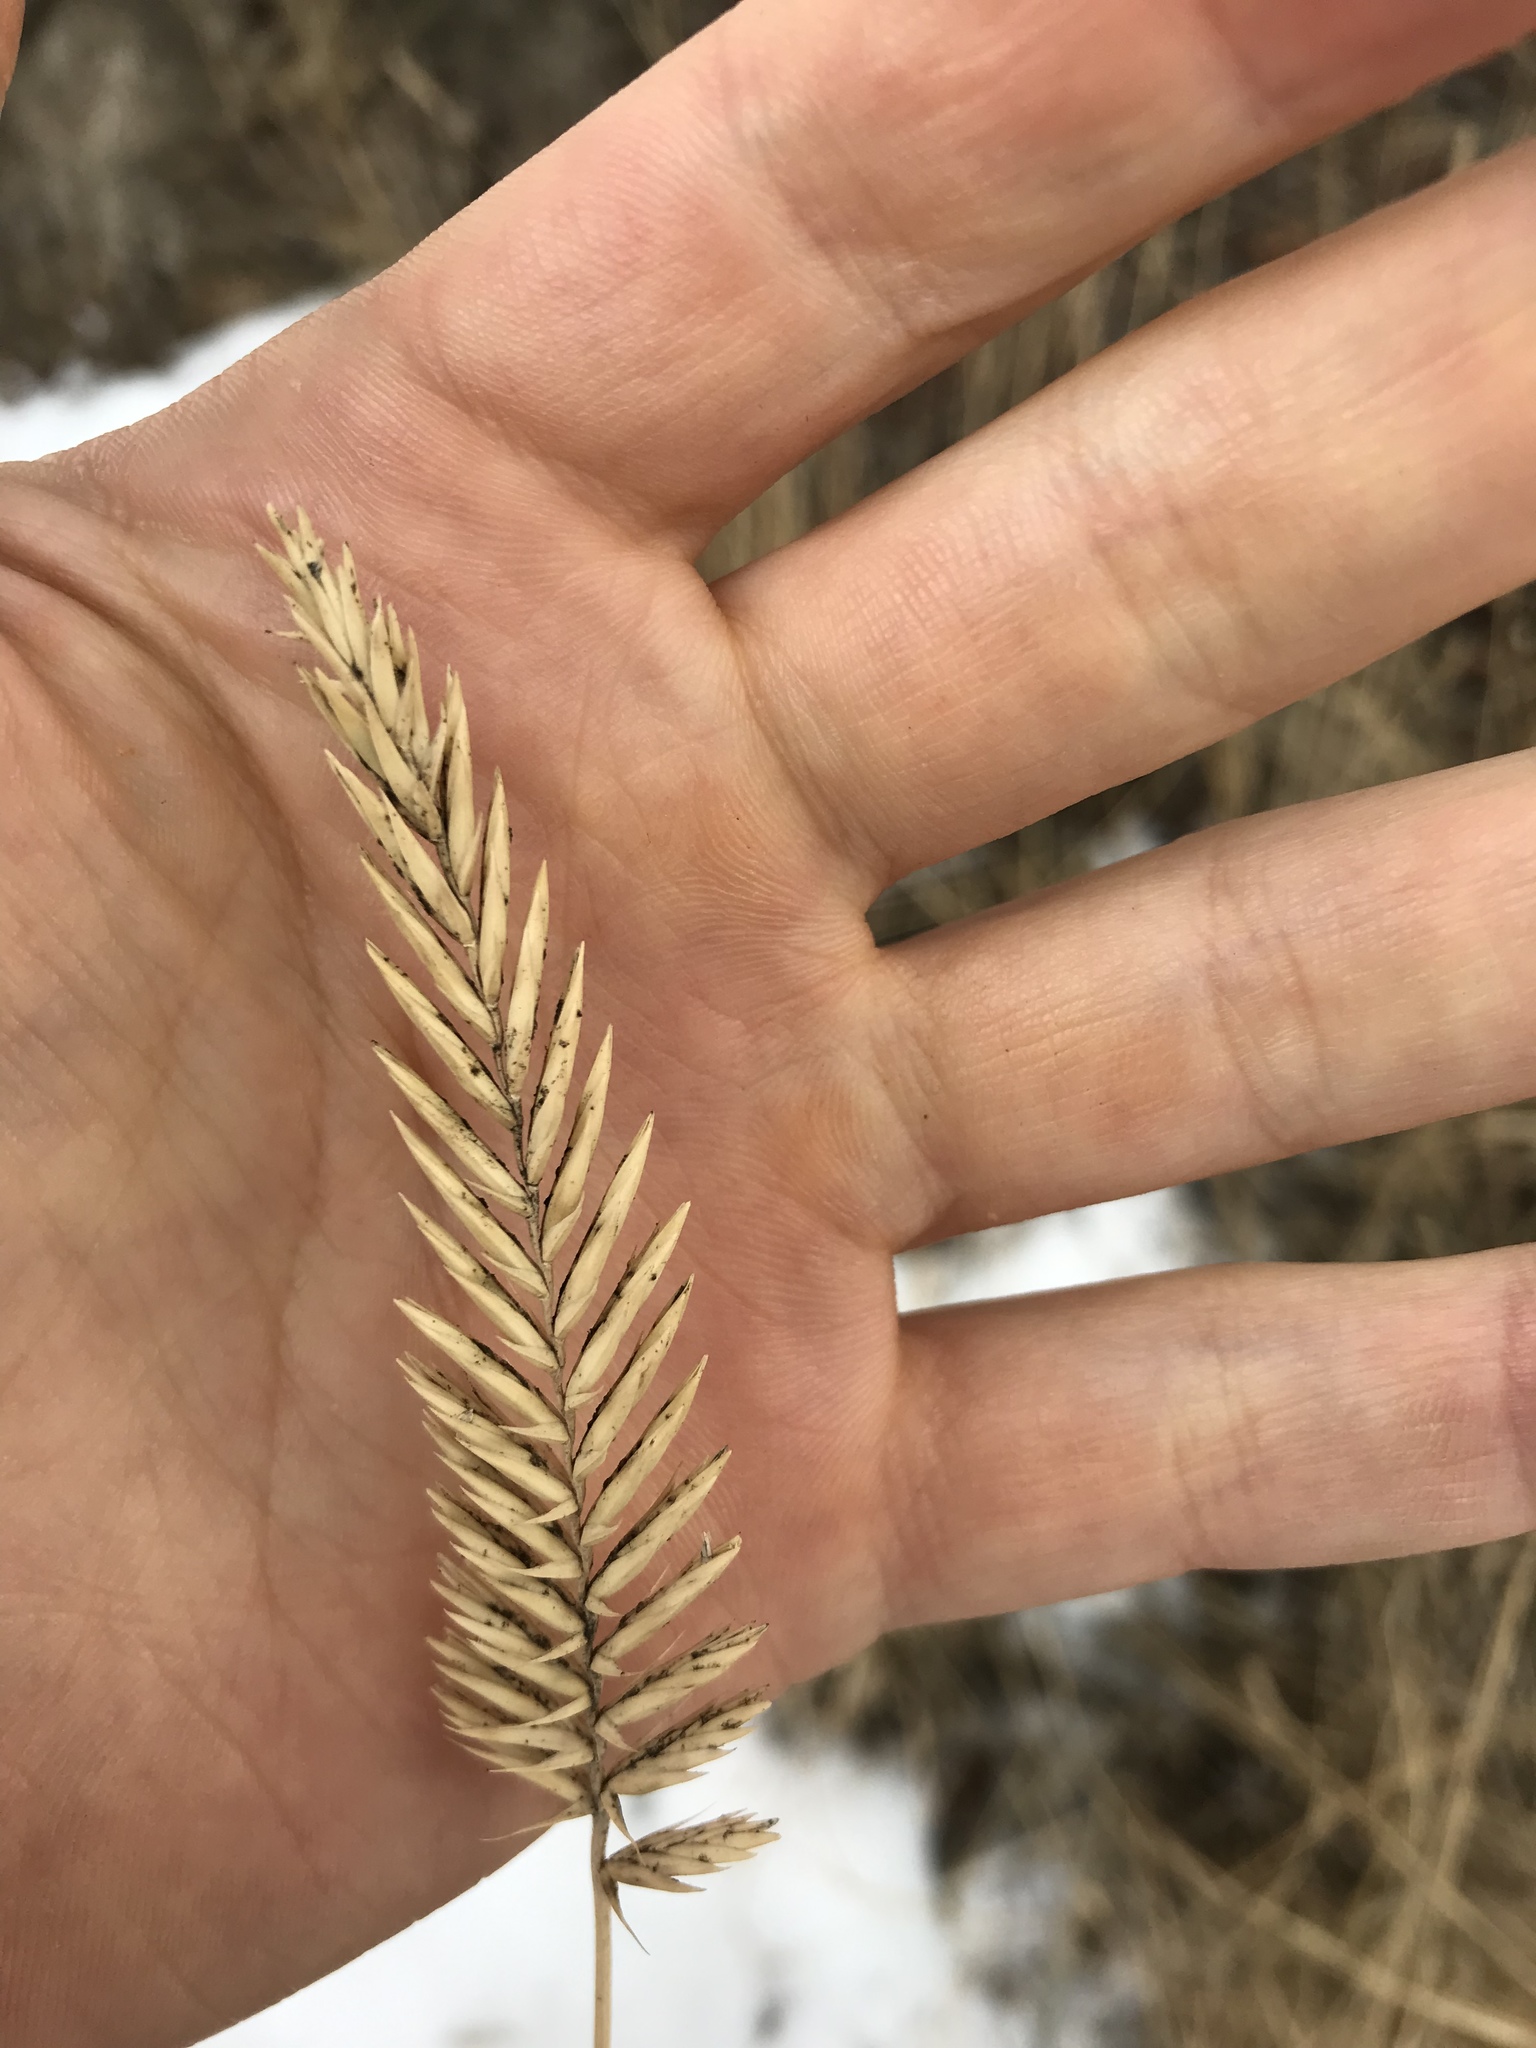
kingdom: Plantae
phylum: Tracheophyta
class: Liliopsida
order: Poales
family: Poaceae
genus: Agropyron
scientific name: Agropyron cristatum
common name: Crested wheatgrass
